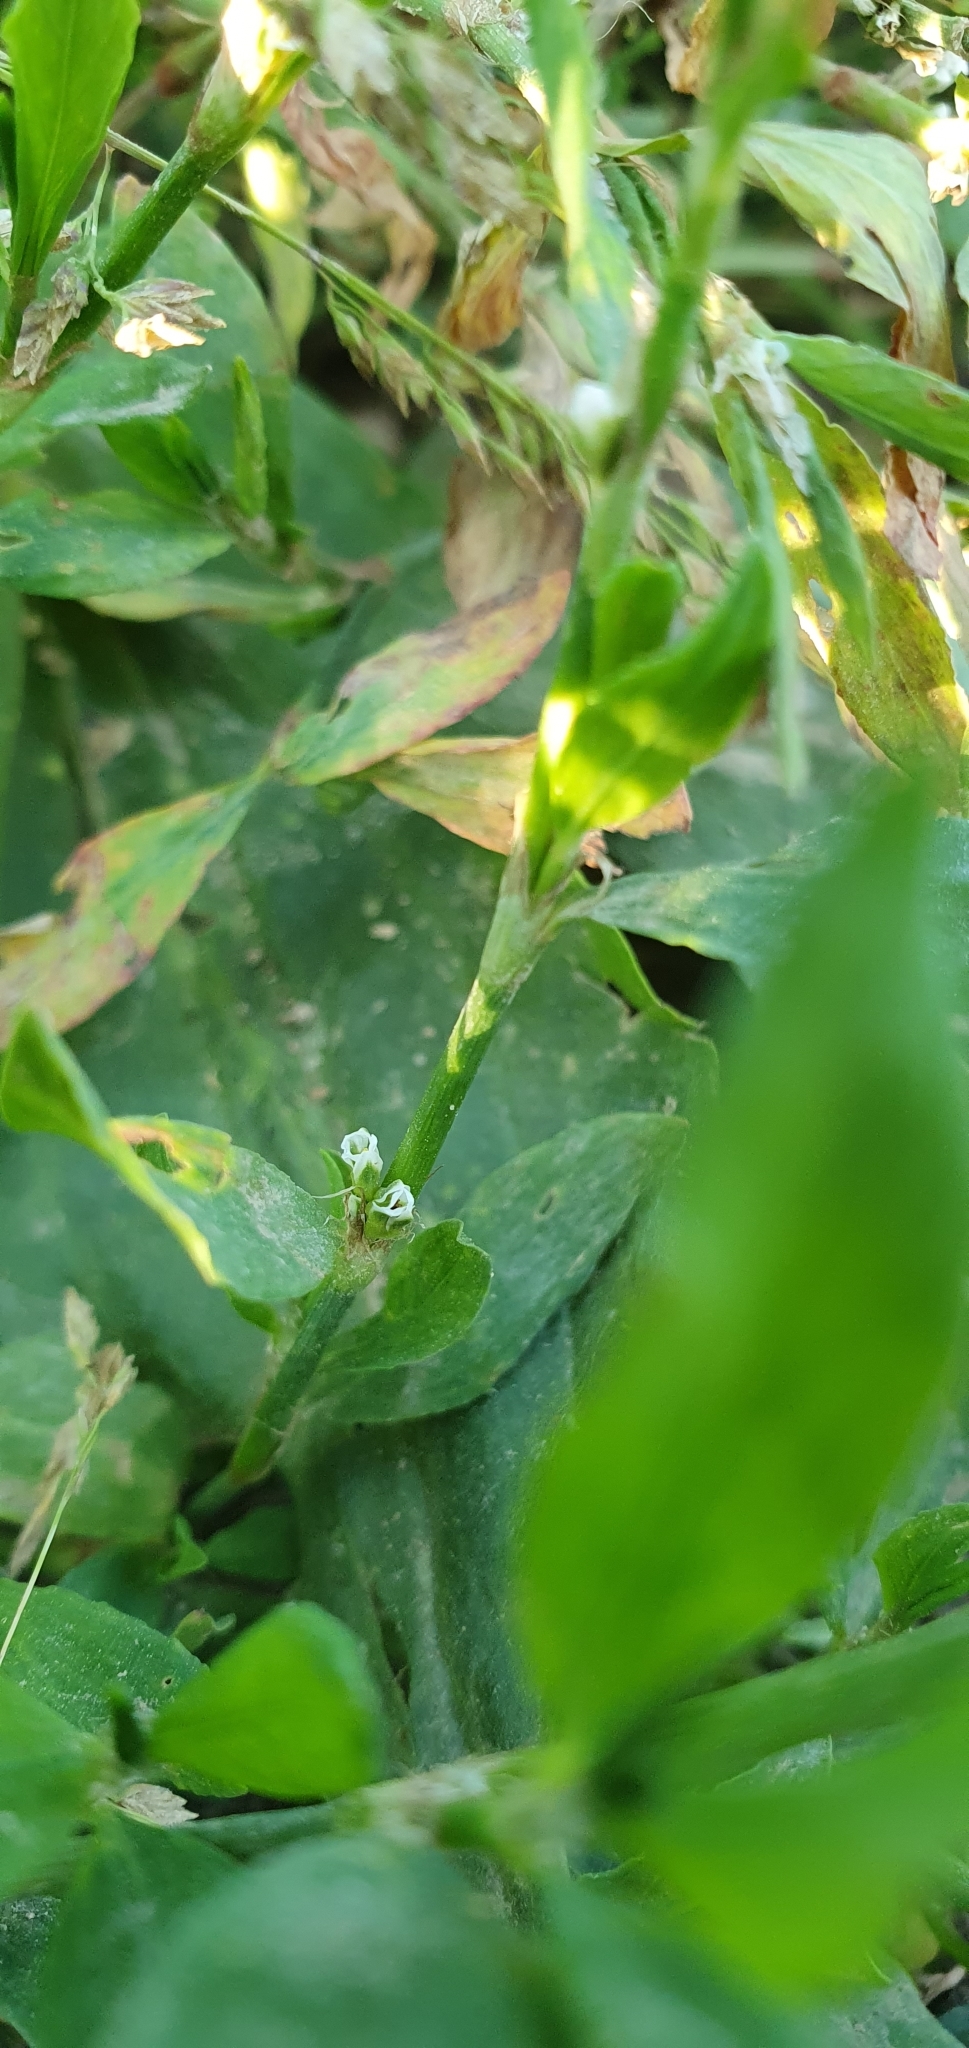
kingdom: Plantae
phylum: Tracheophyta
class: Magnoliopsida
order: Caryophyllales
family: Polygonaceae
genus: Polygonum
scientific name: Polygonum aviculare
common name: Prostrate knotweed
